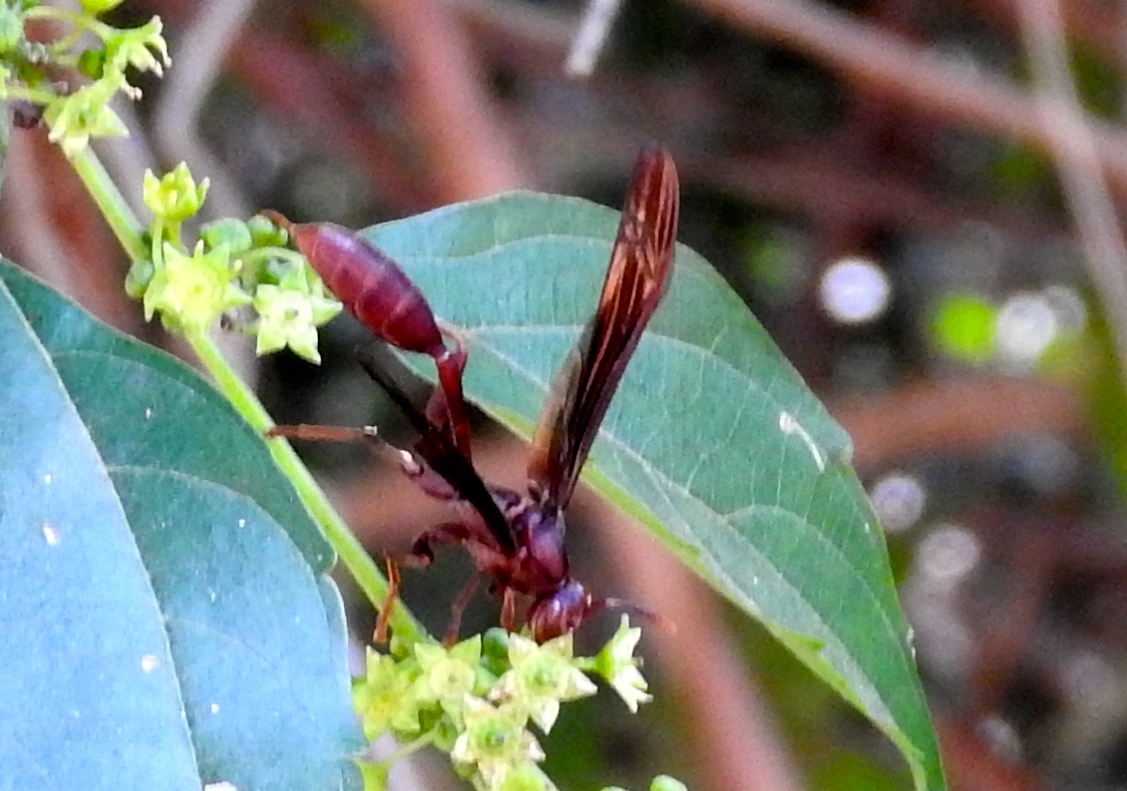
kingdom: Animalia
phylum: Arthropoda
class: Insecta
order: Hymenoptera
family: Vespidae
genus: Mischocyttarus
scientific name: Mischocyttarus melanarius
